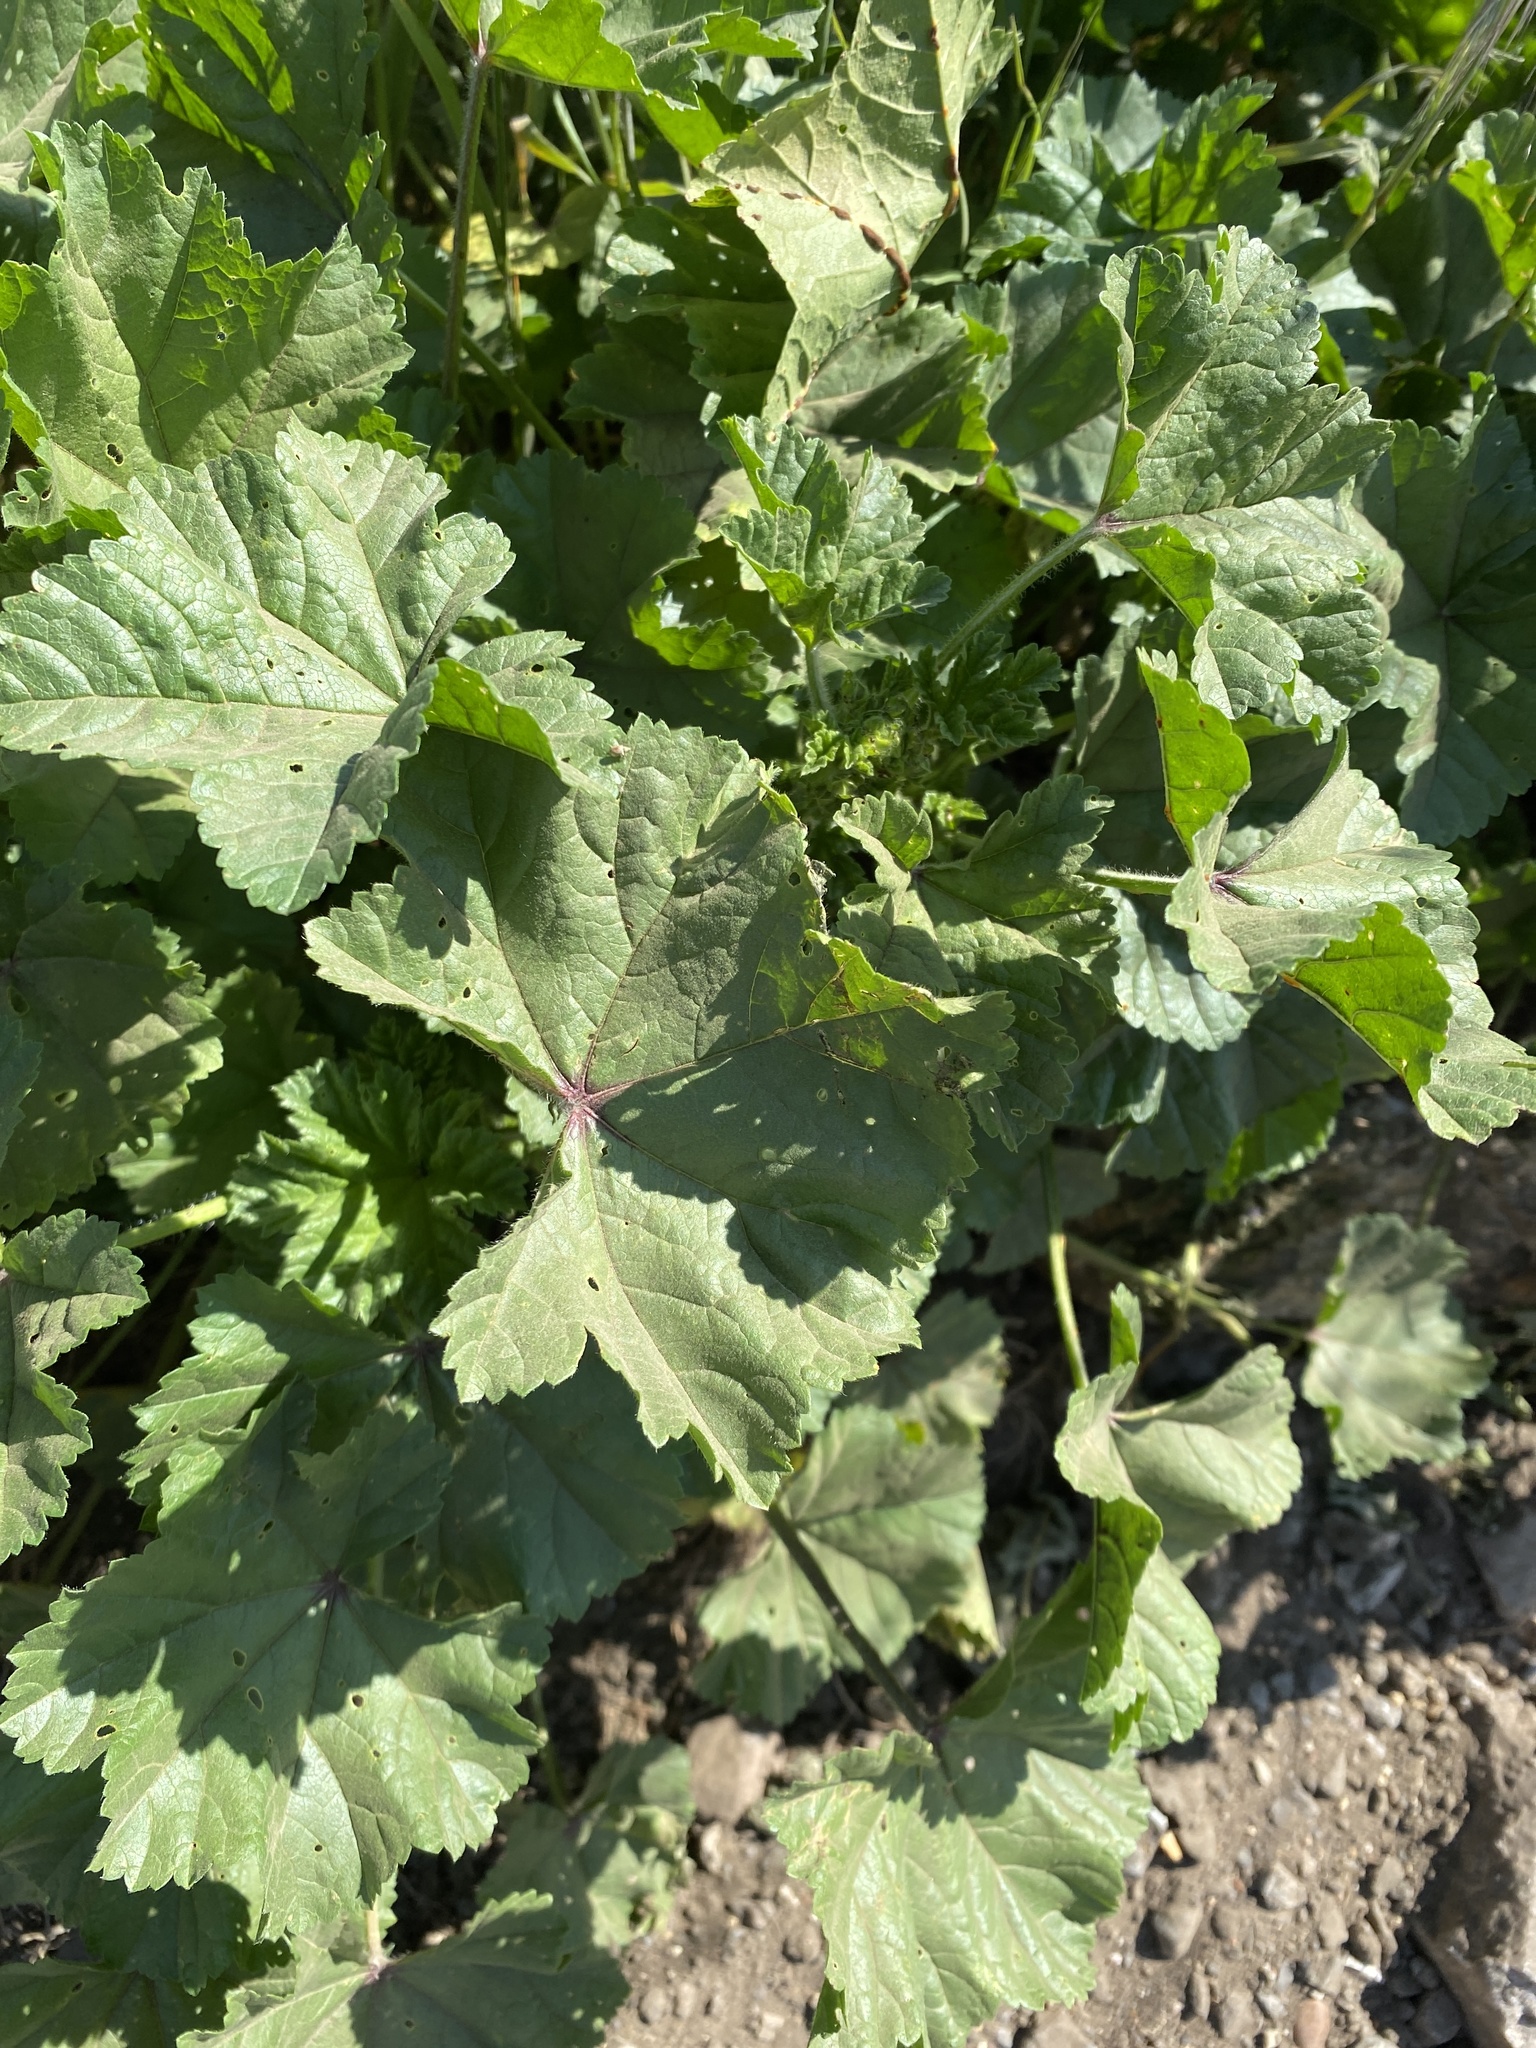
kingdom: Plantae
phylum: Tracheophyta
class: Magnoliopsida
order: Malvales
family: Malvaceae
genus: Malva
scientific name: Malva sylvestris
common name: Common mallow
